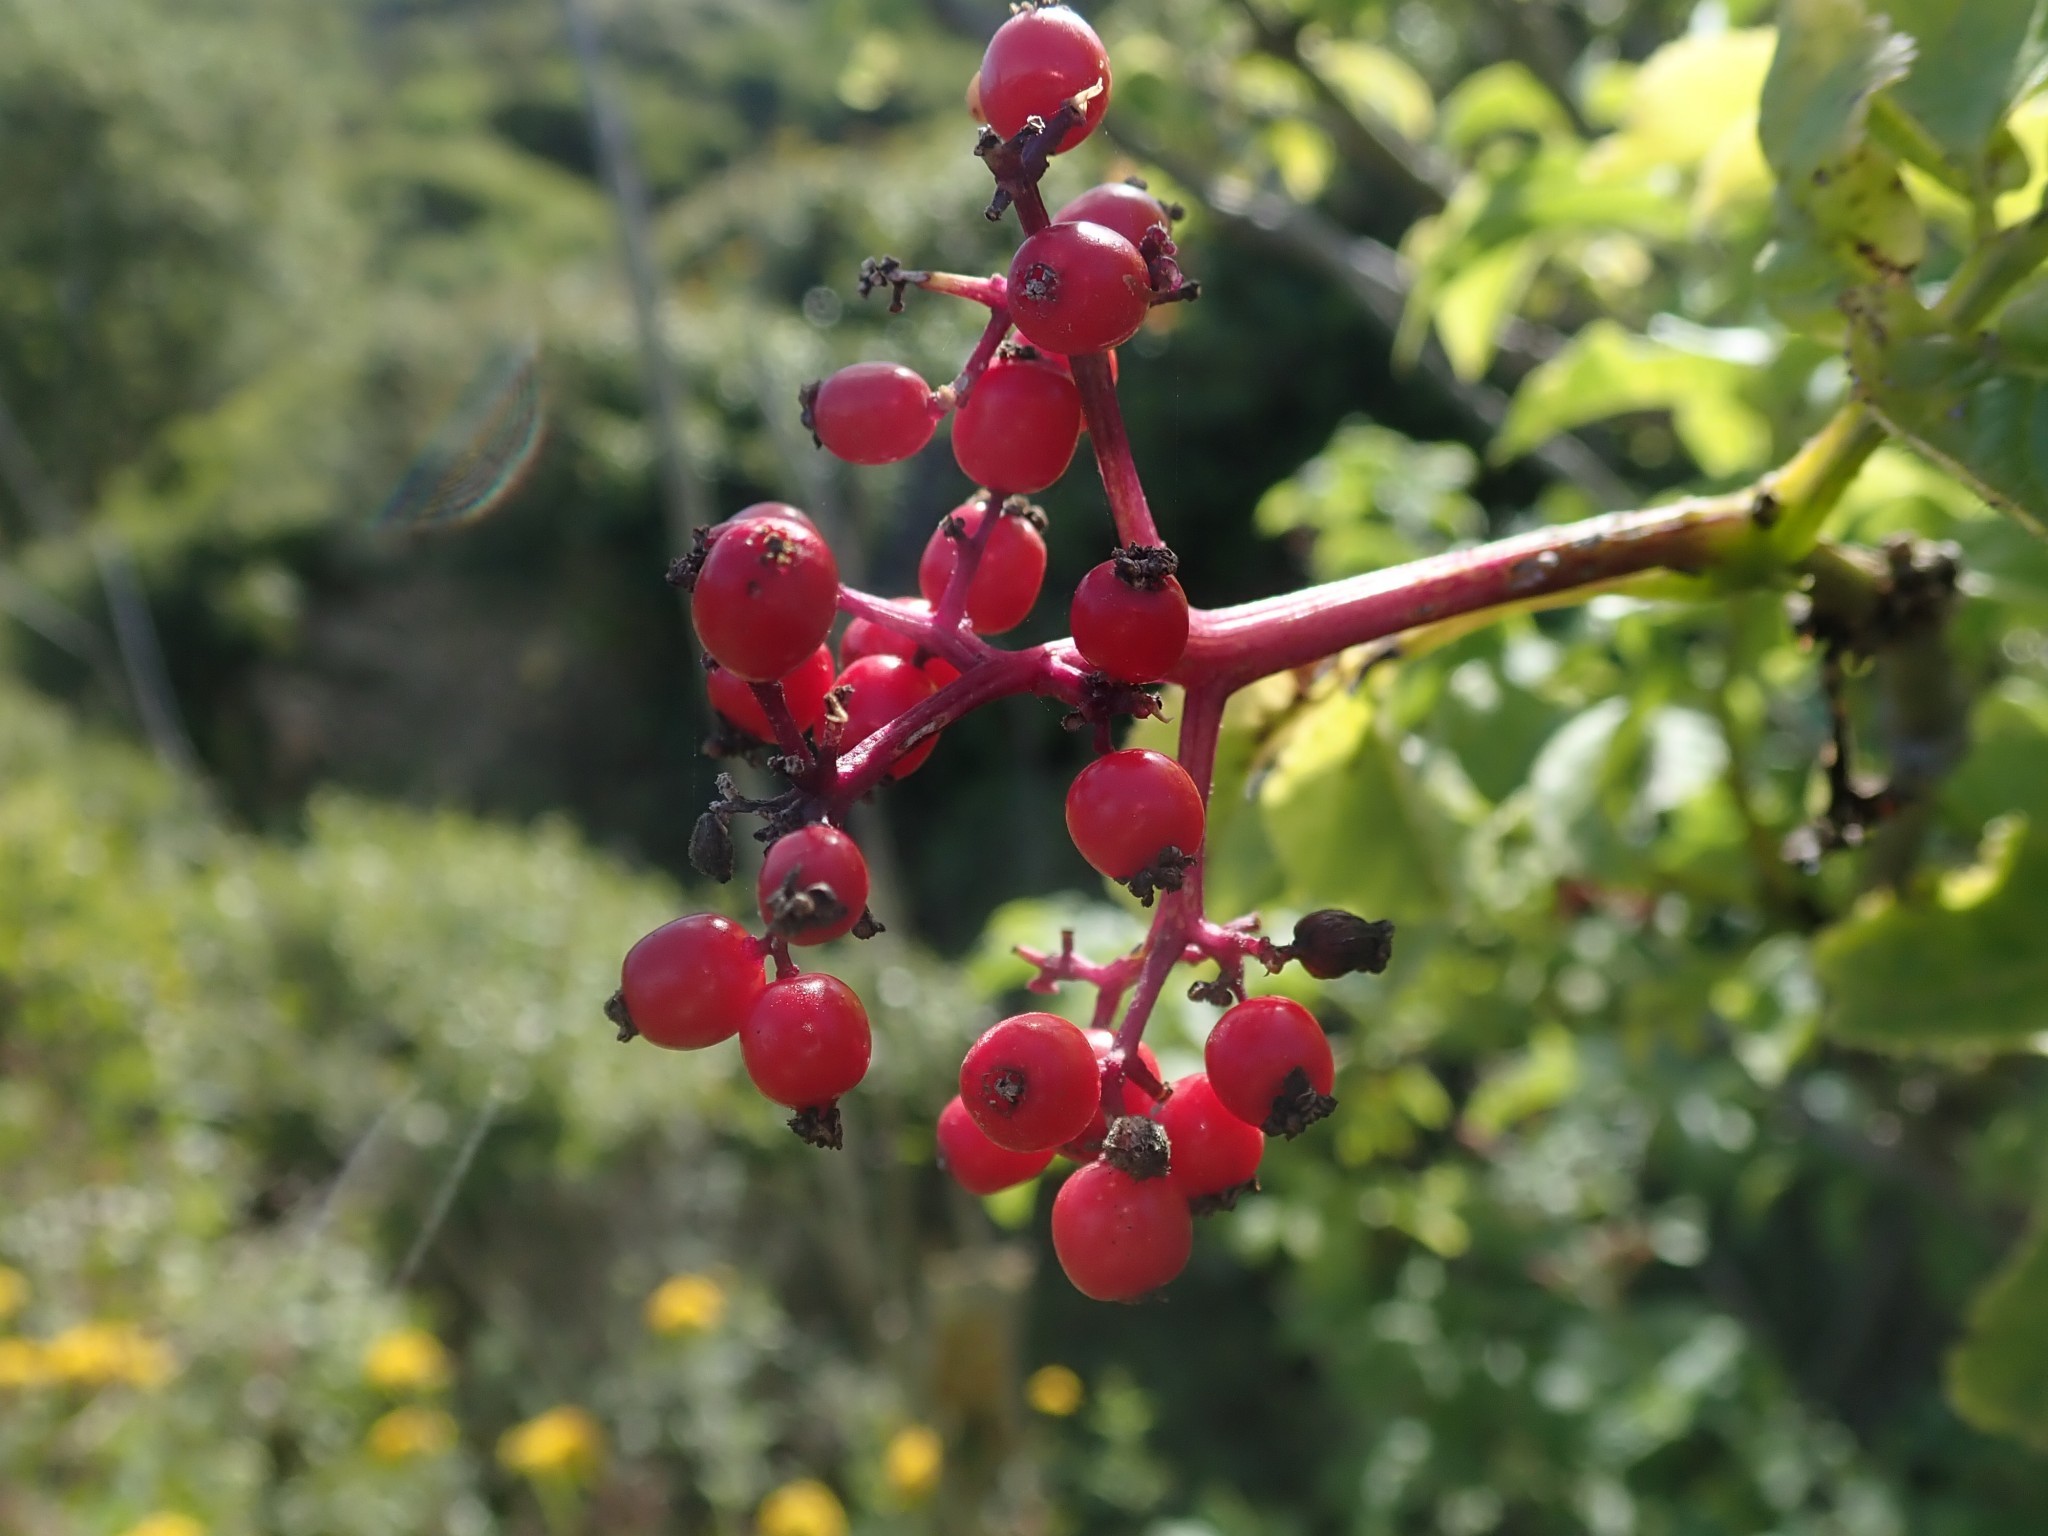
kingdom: Plantae
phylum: Tracheophyta
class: Magnoliopsida
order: Dipsacales
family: Viburnaceae
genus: Sambucus
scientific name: Sambucus racemosa
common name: Red-berried elder
